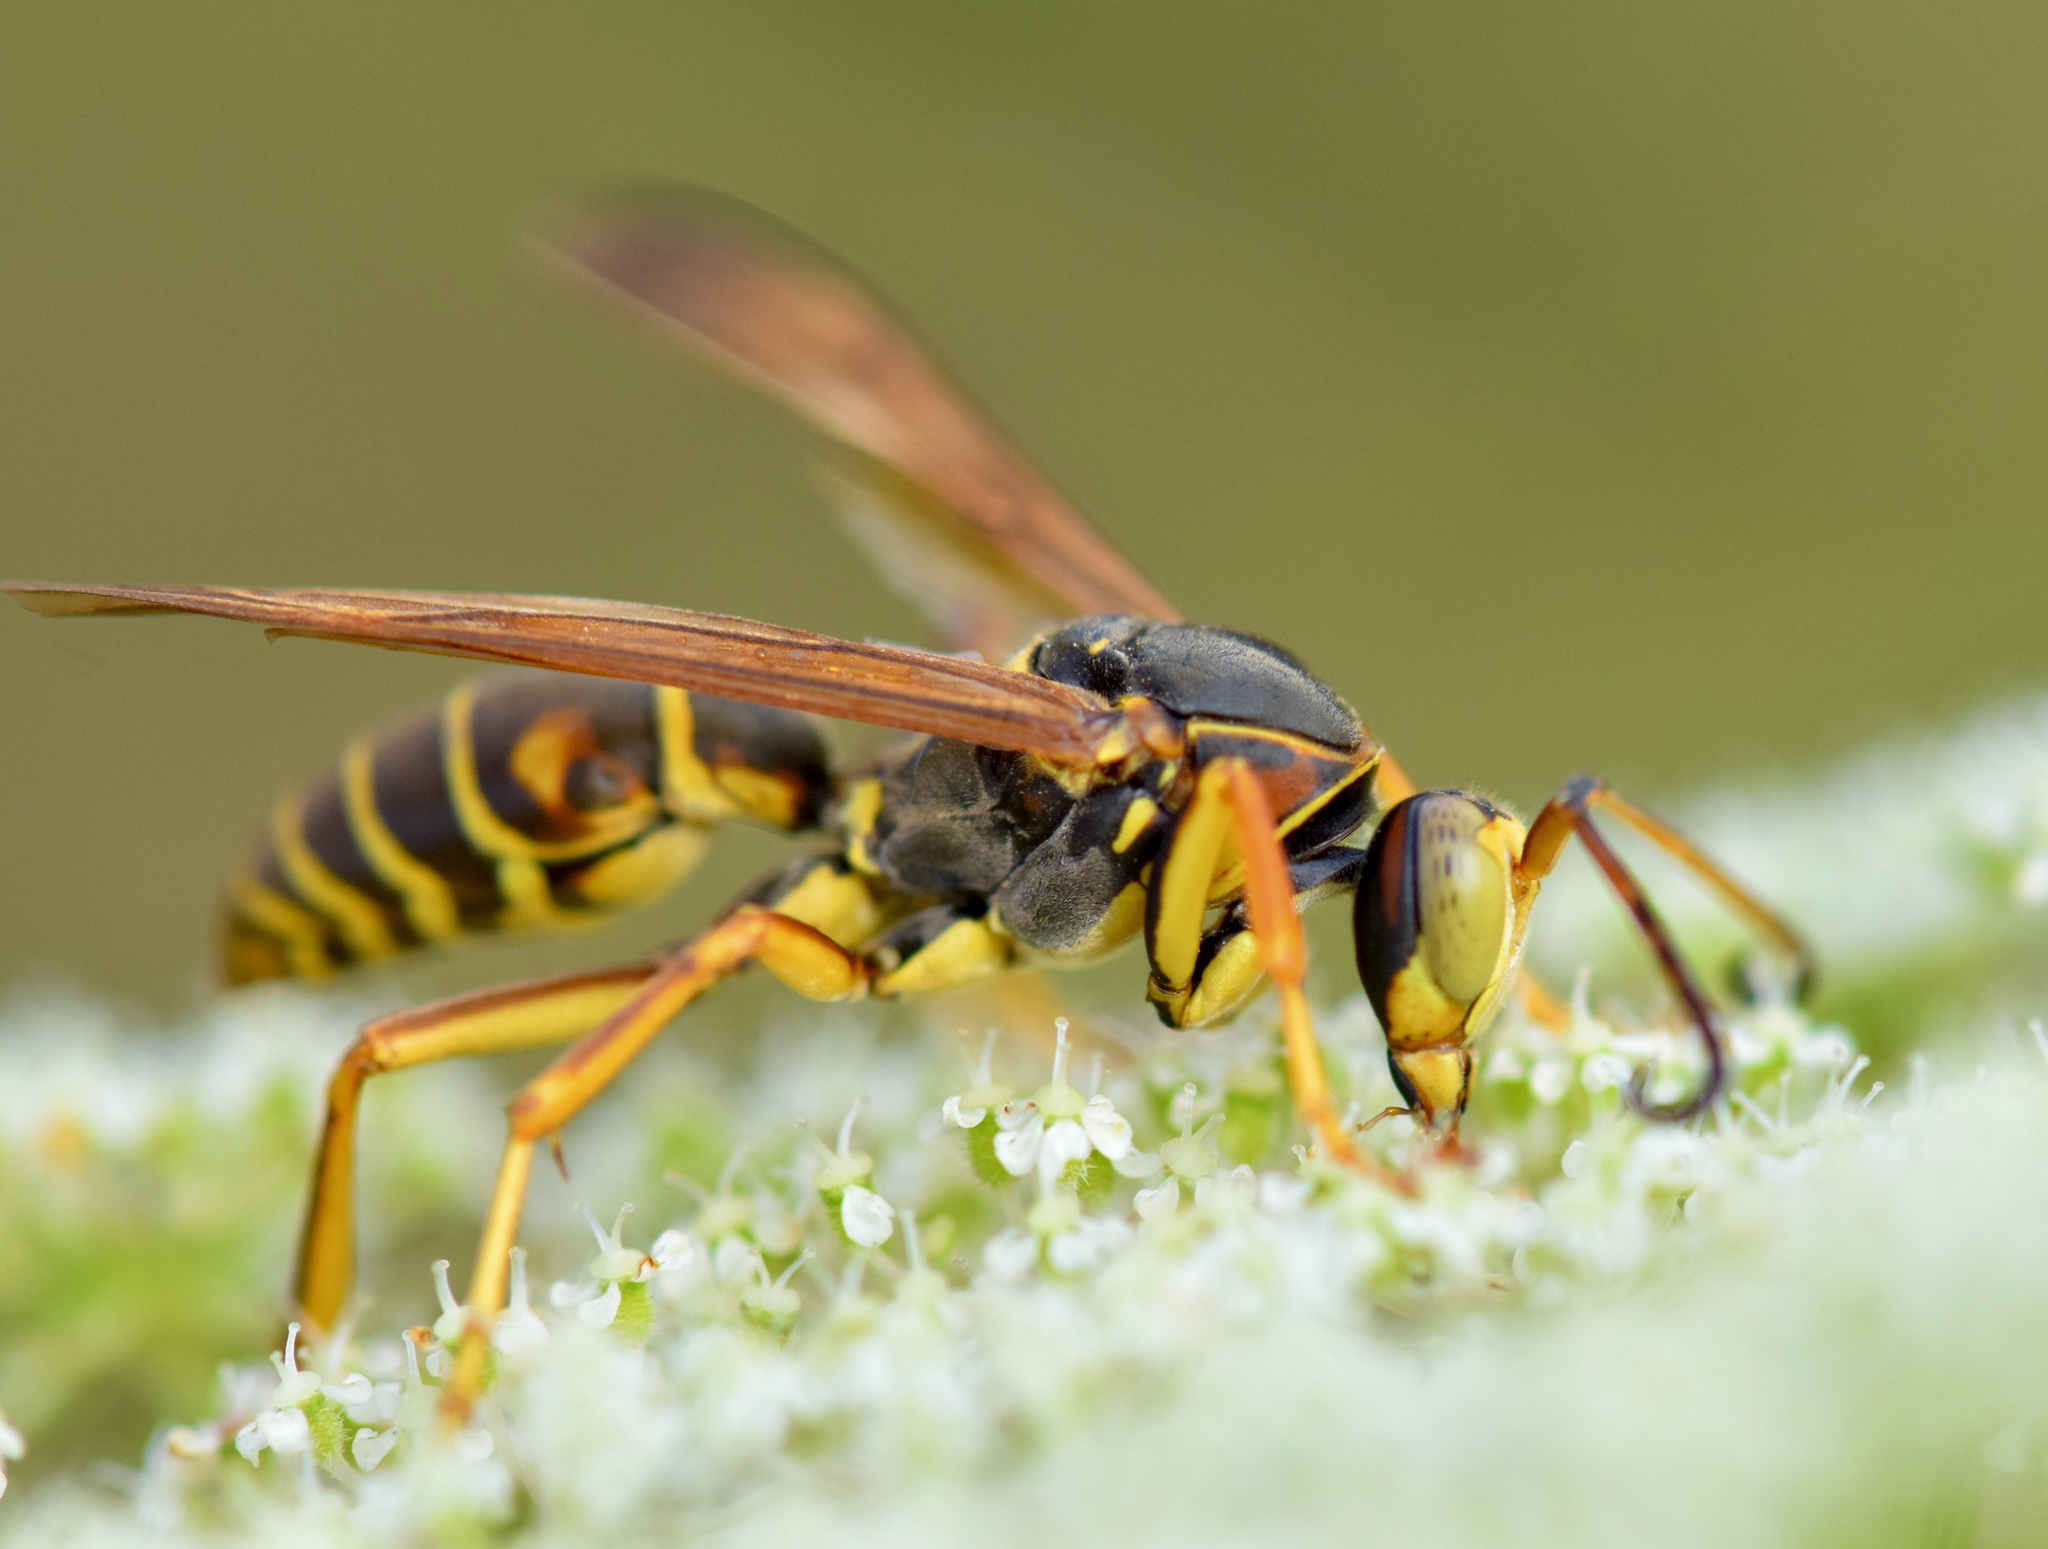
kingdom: Animalia
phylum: Arthropoda
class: Insecta
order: Hymenoptera
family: Eumenidae
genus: Polistes
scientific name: Polistes fuscatus
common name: Dark paper wasp
